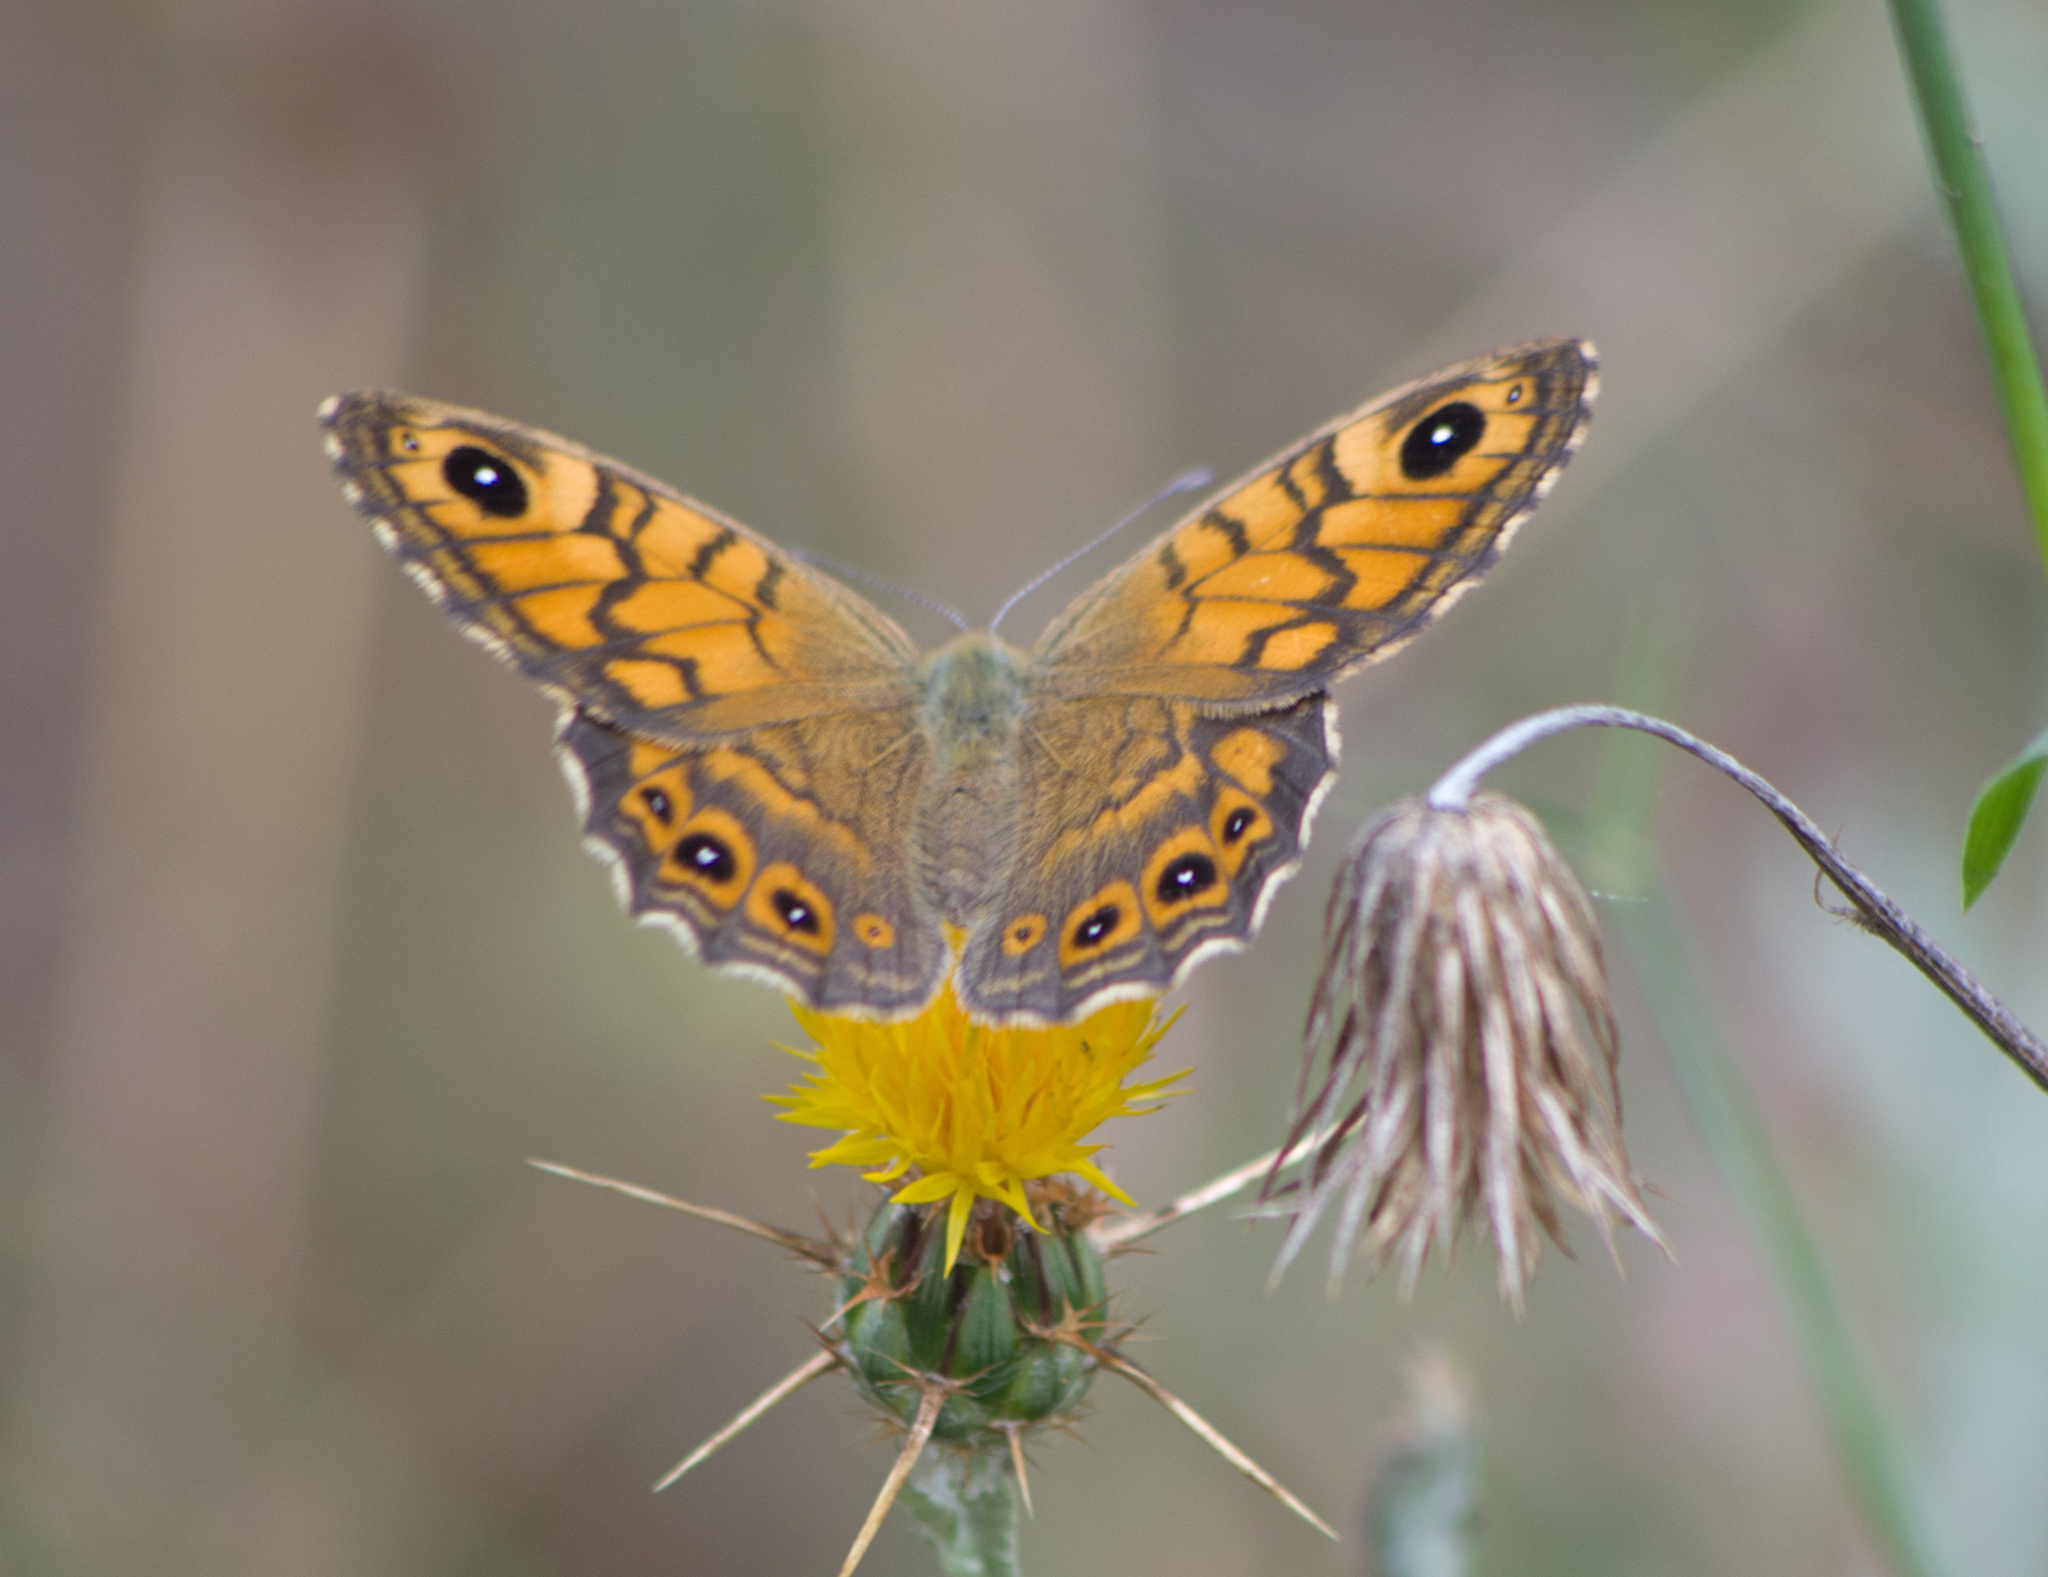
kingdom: Animalia
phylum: Arthropoda
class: Insecta
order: Lepidoptera
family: Nymphalidae
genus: Pararge
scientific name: Pararge Lasiommata megera
